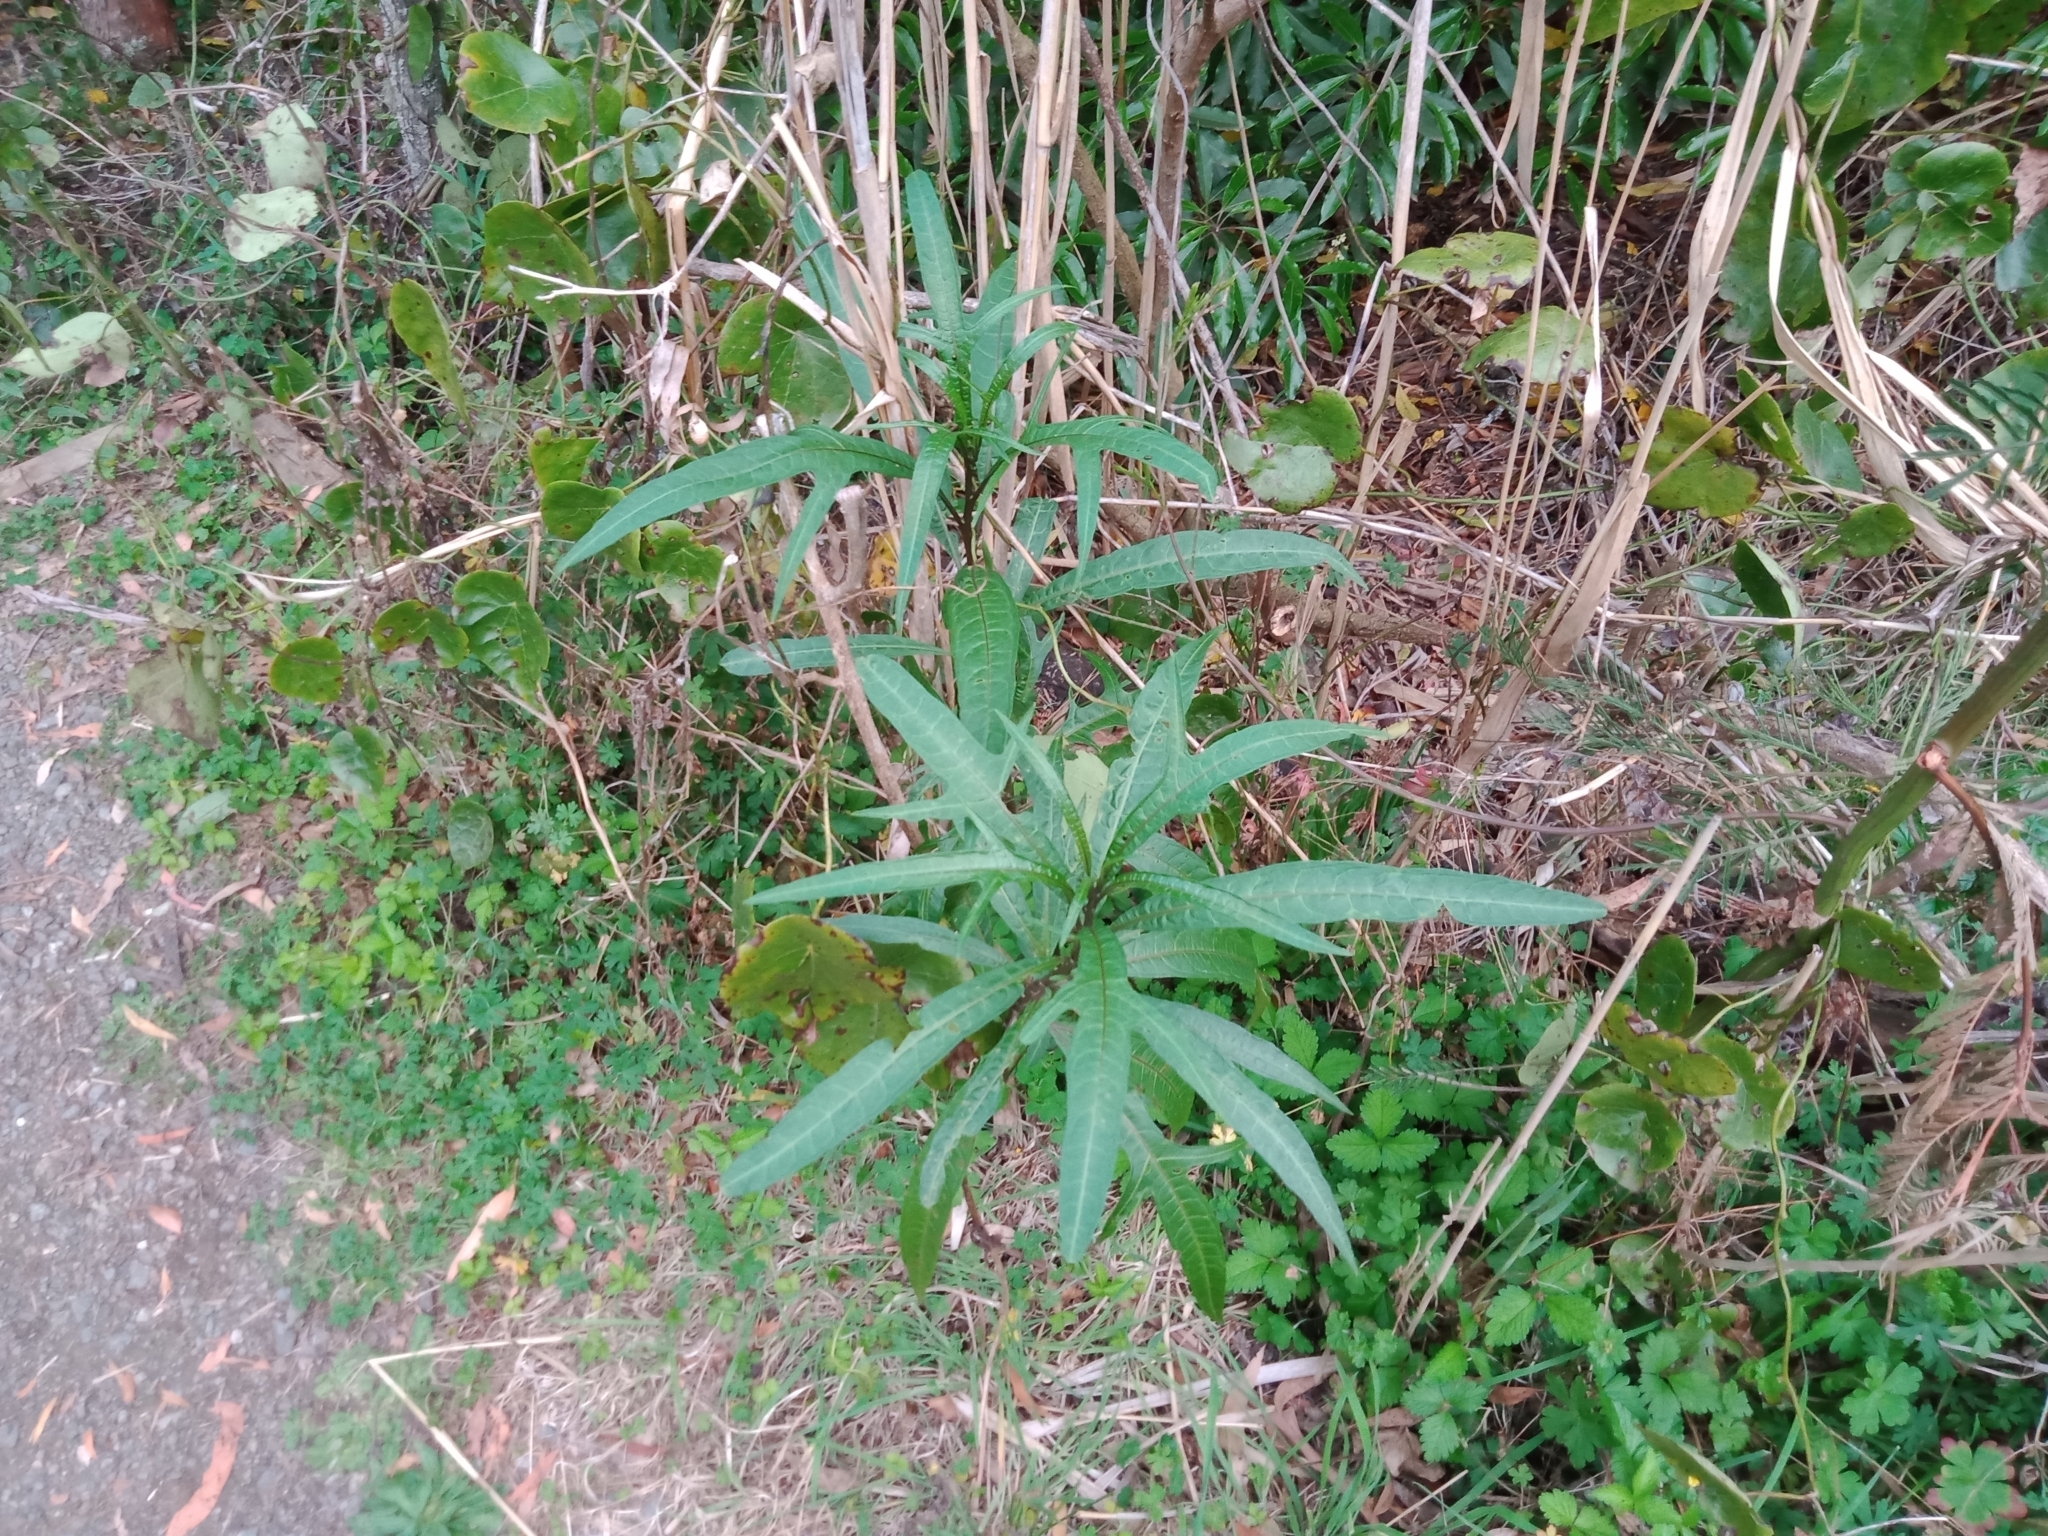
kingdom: Plantae
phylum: Tracheophyta
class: Magnoliopsida
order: Solanales
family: Solanaceae
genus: Solanum
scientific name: Solanum aviculare
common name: New zealand nightshade
